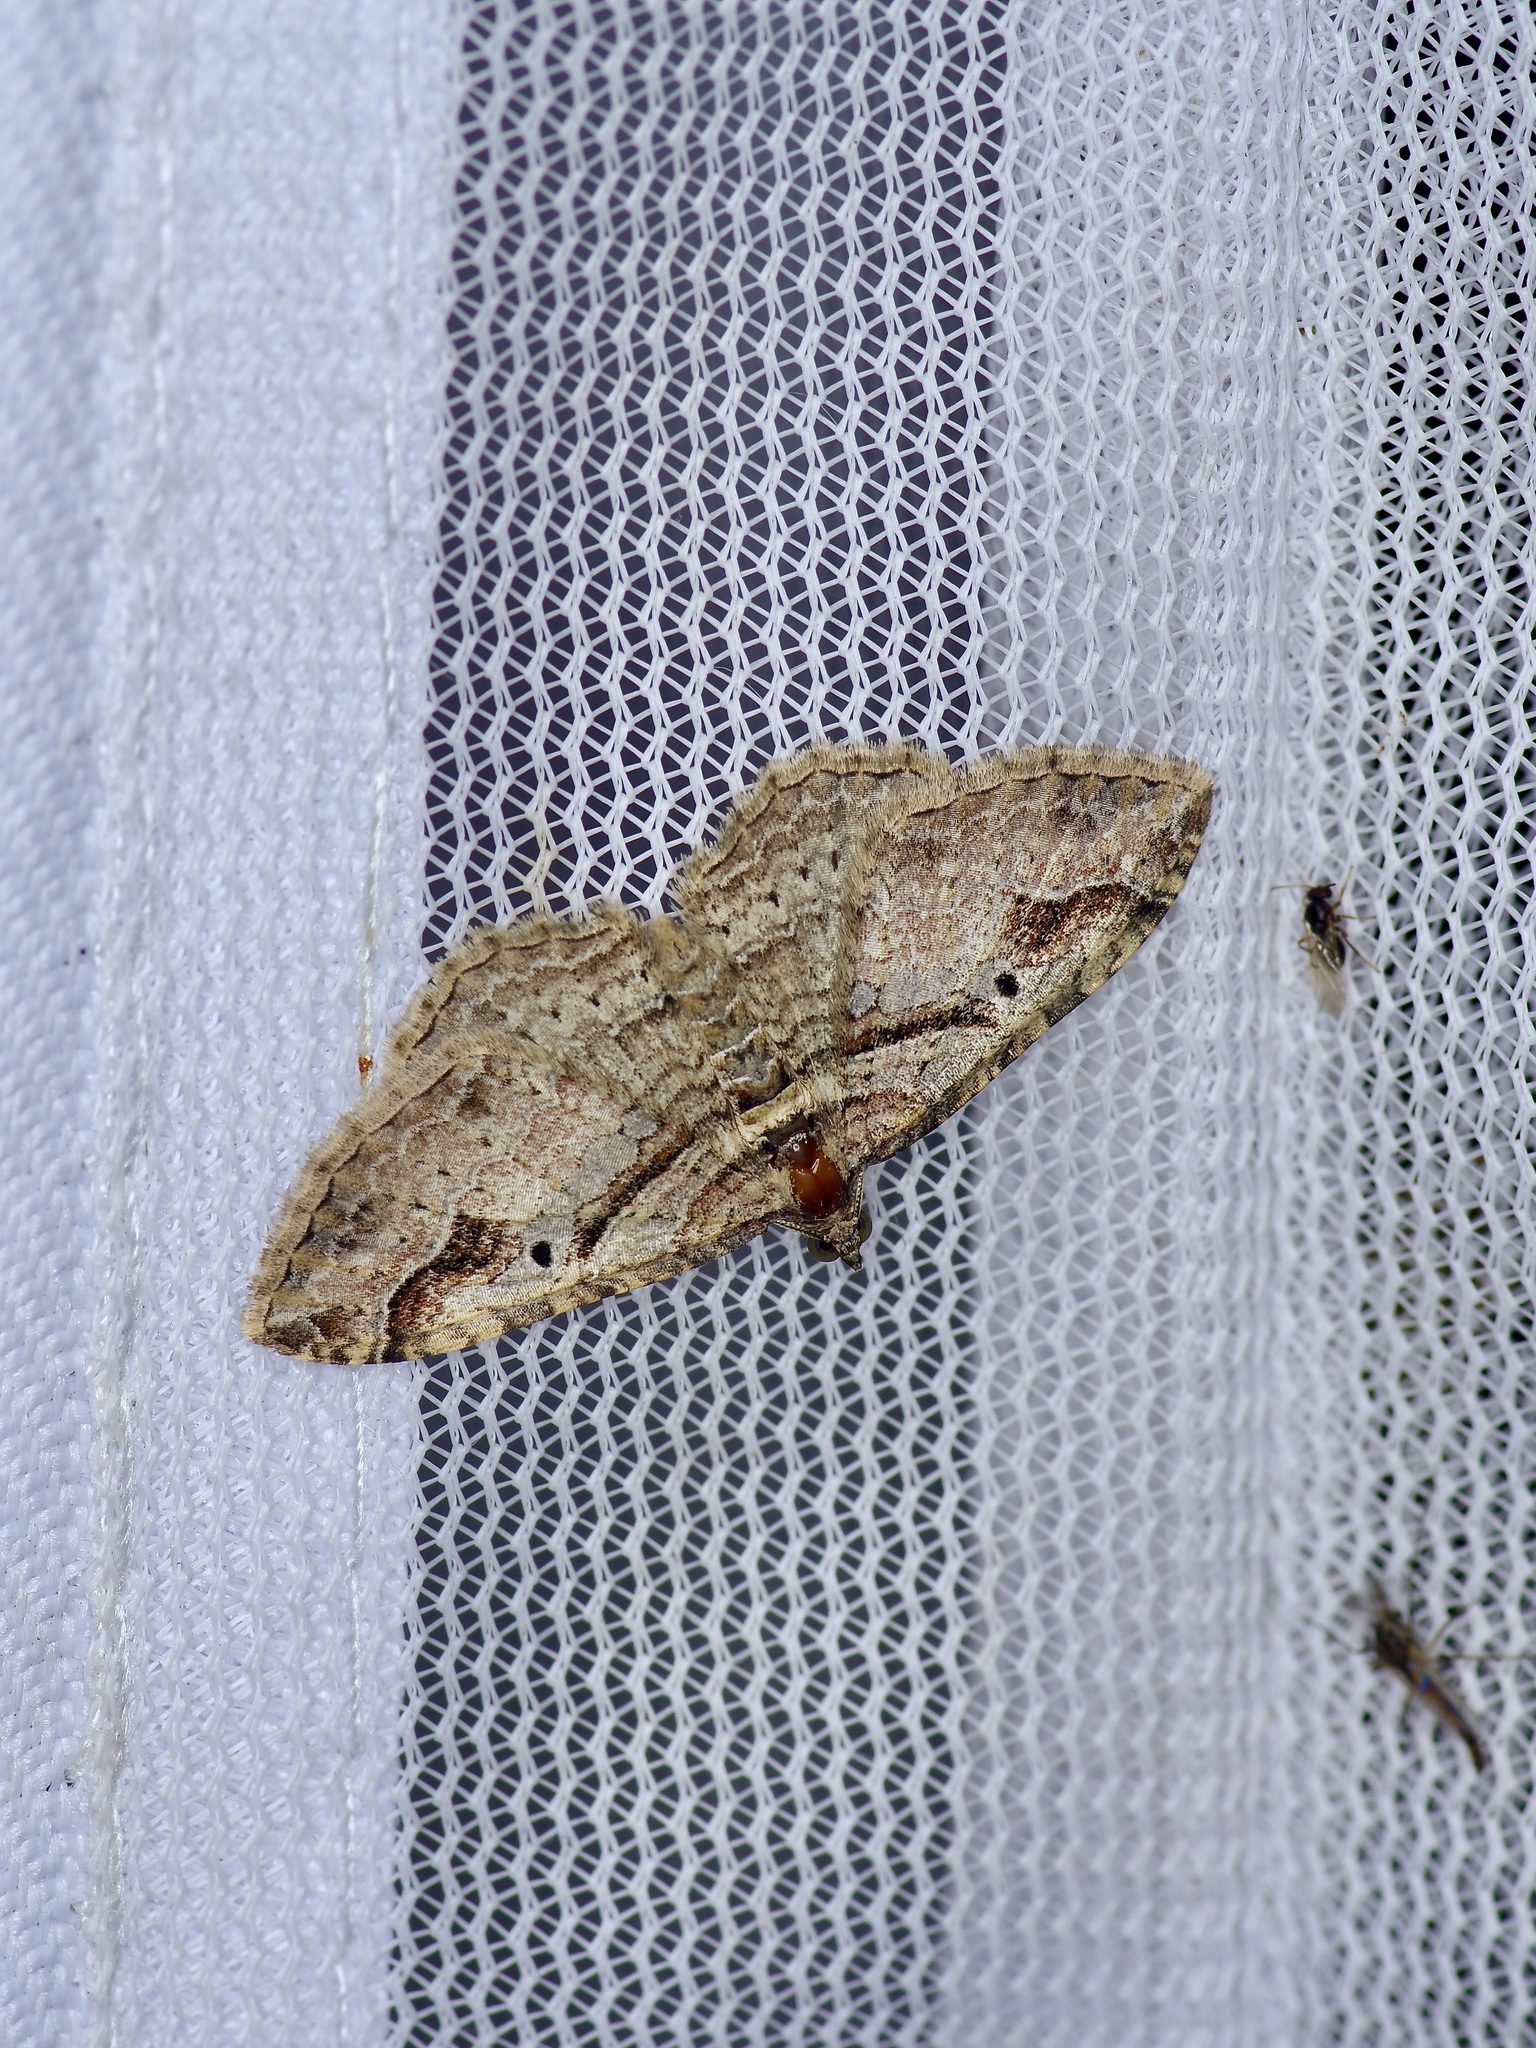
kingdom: Animalia
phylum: Arthropoda
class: Insecta
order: Lepidoptera
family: Geometridae
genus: Costaconvexa
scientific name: Costaconvexa centrostrigaria
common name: Bent-line carpet
